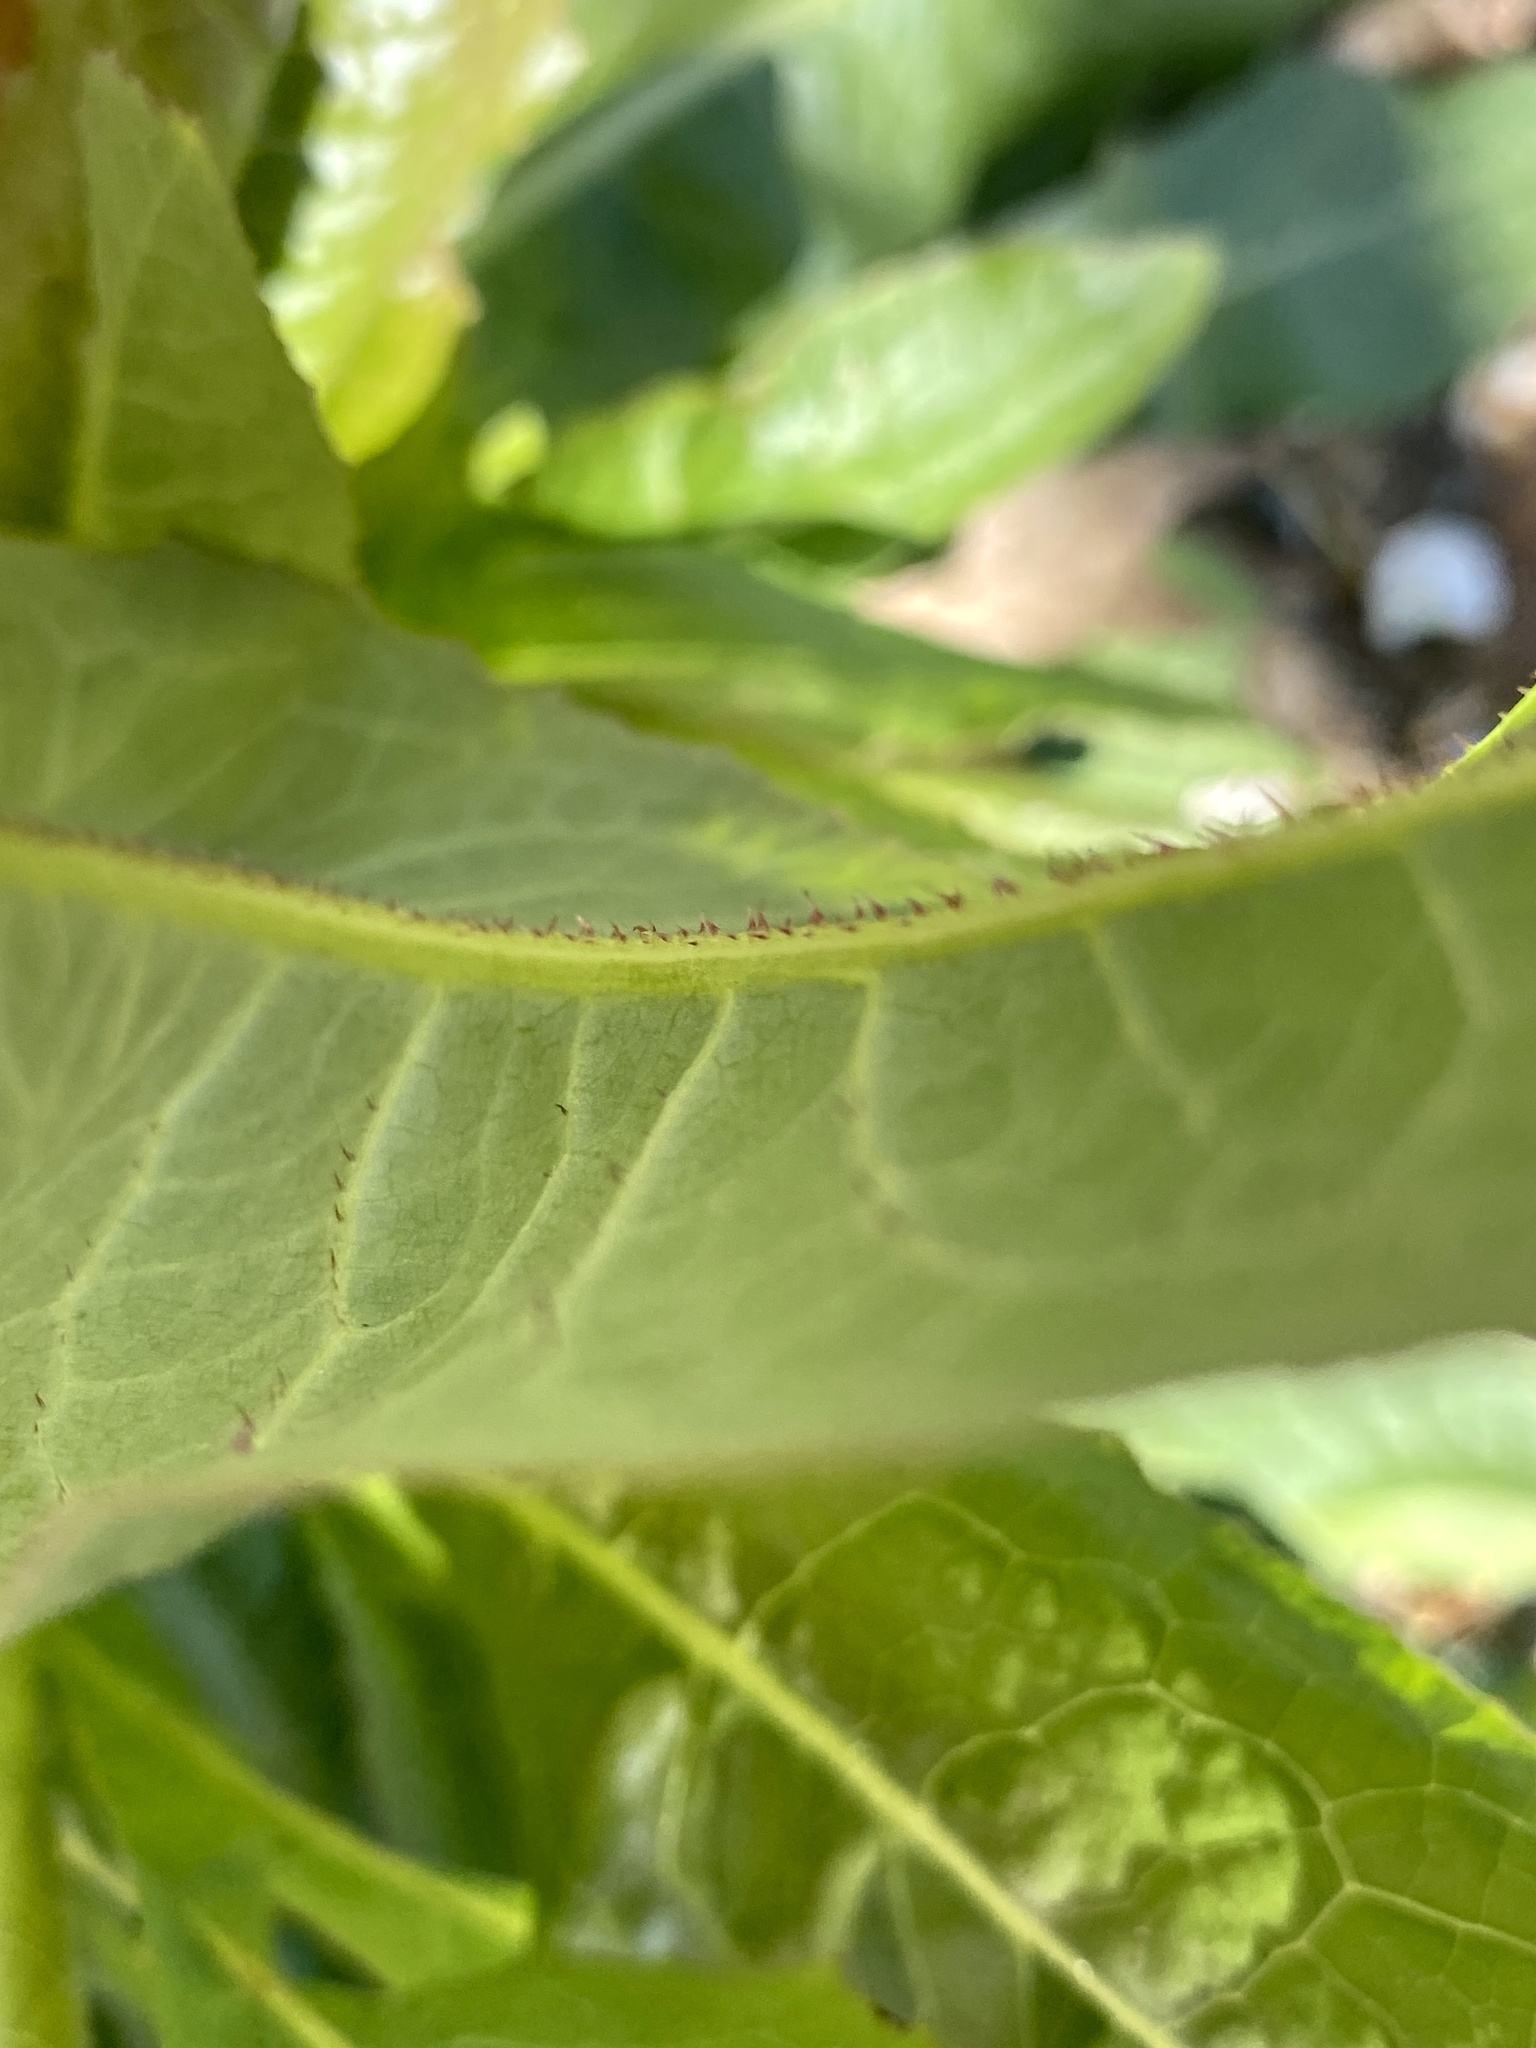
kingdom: Plantae
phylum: Tracheophyta
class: Magnoliopsida
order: Asterales
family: Asteraceae
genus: Lactuca
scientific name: Lactuca serriola
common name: Prickly lettuce
